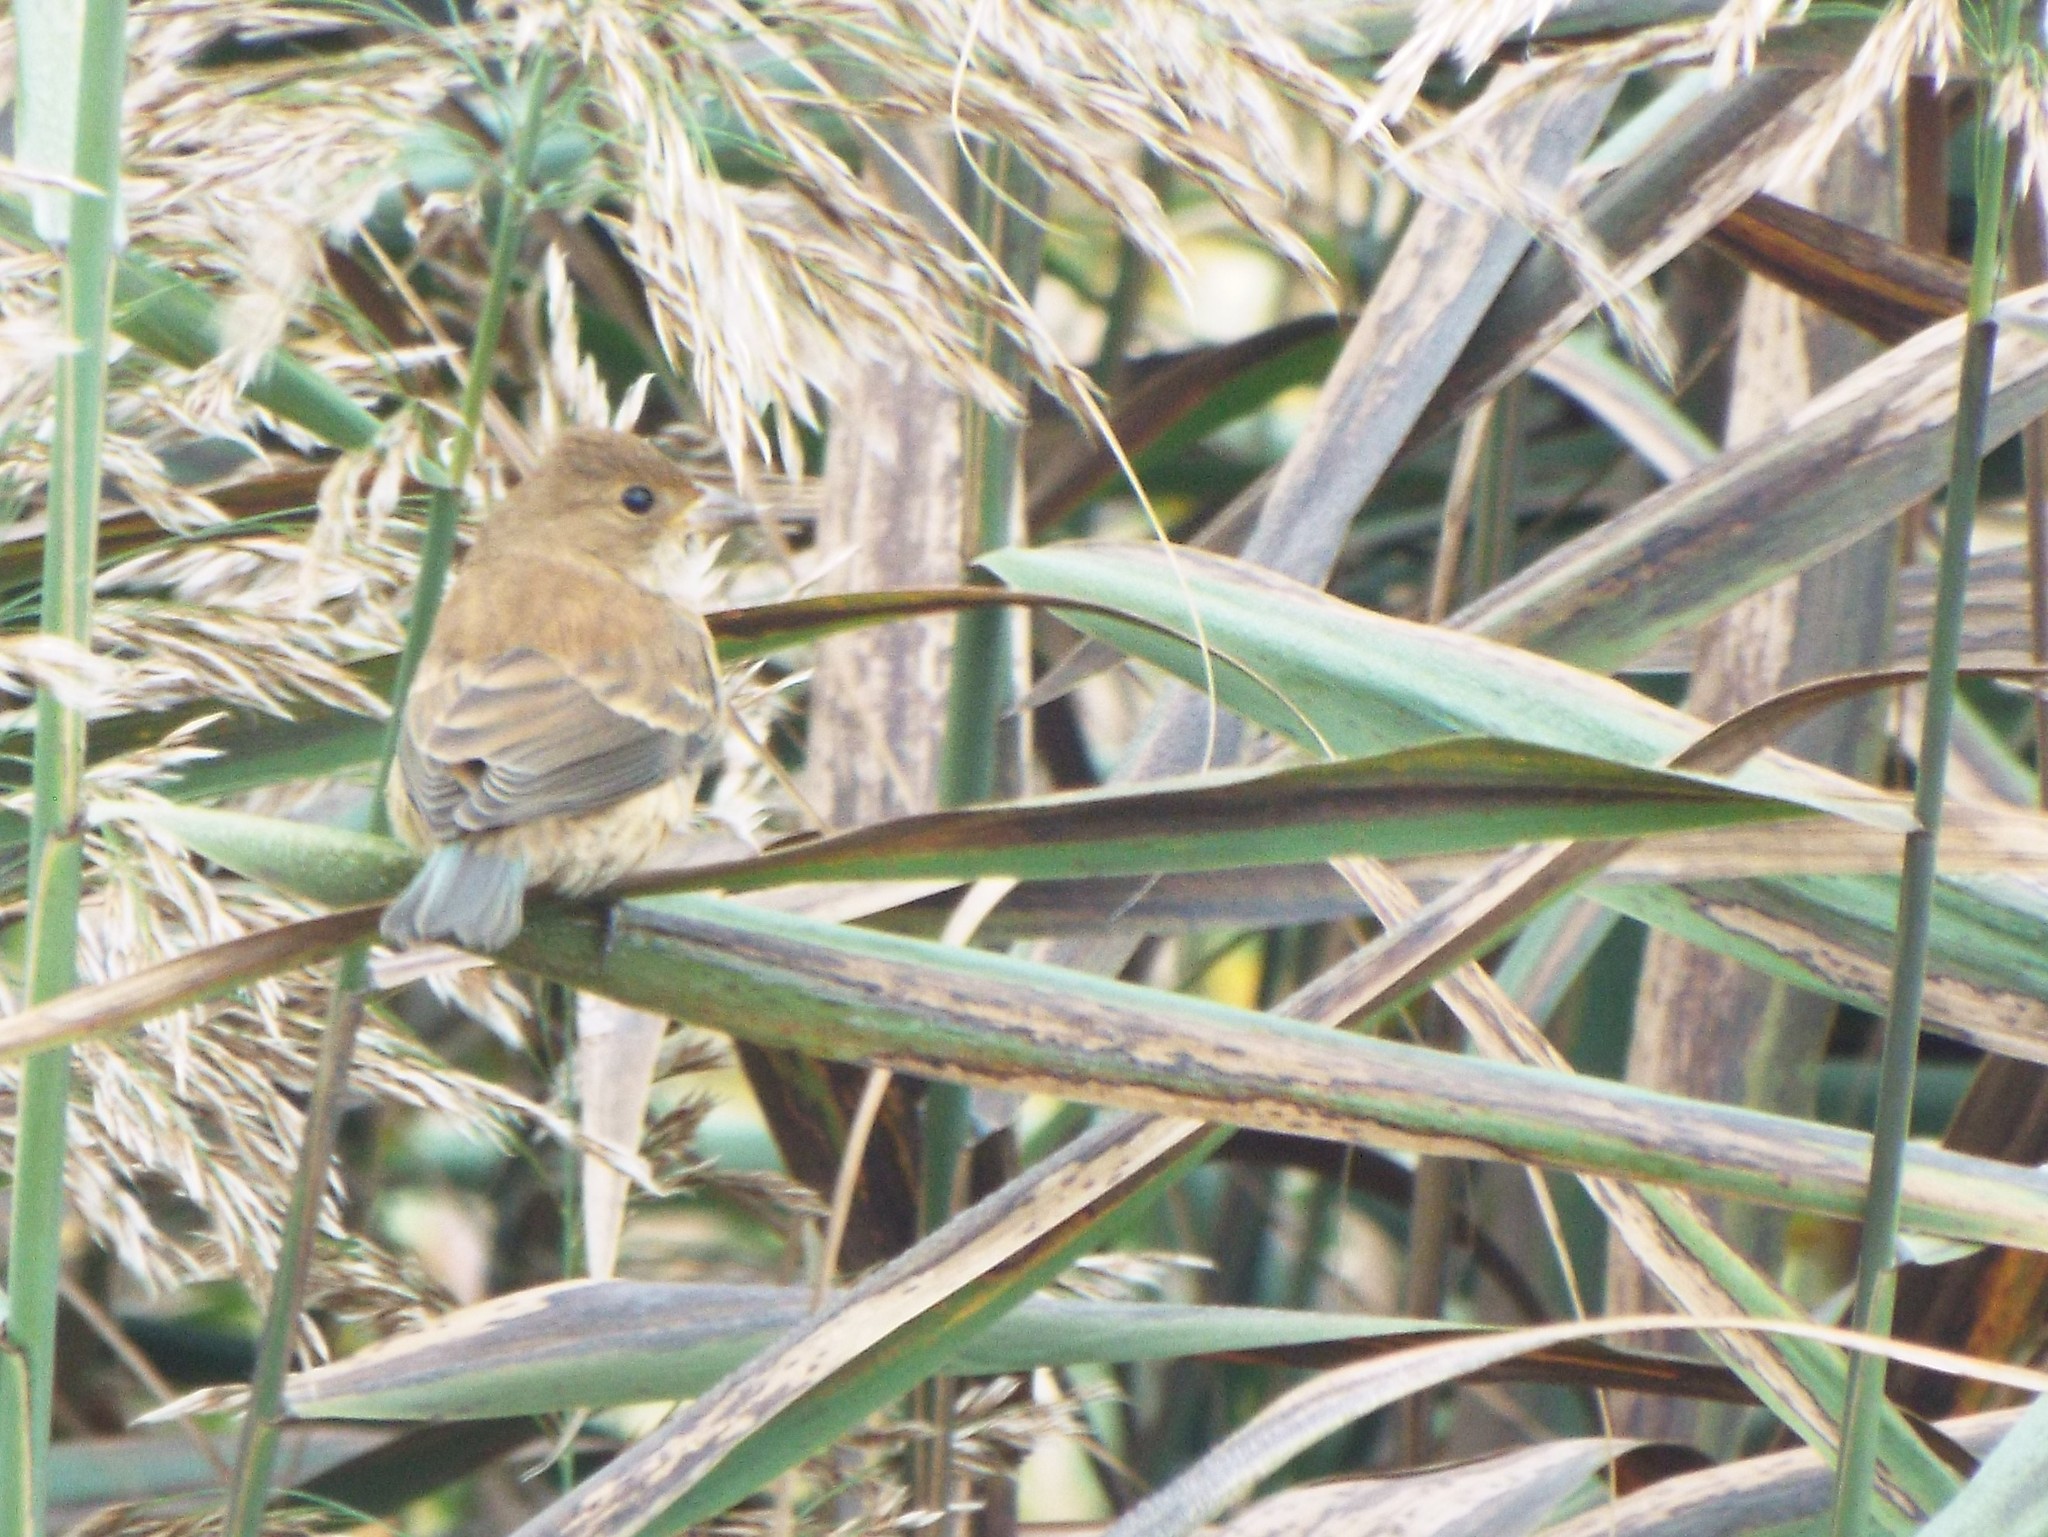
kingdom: Animalia
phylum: Chordata
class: Aves
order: Passeriformes
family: Cardinalidae
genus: Passerina
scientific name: Passerina cyanea
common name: Indigo bunting
